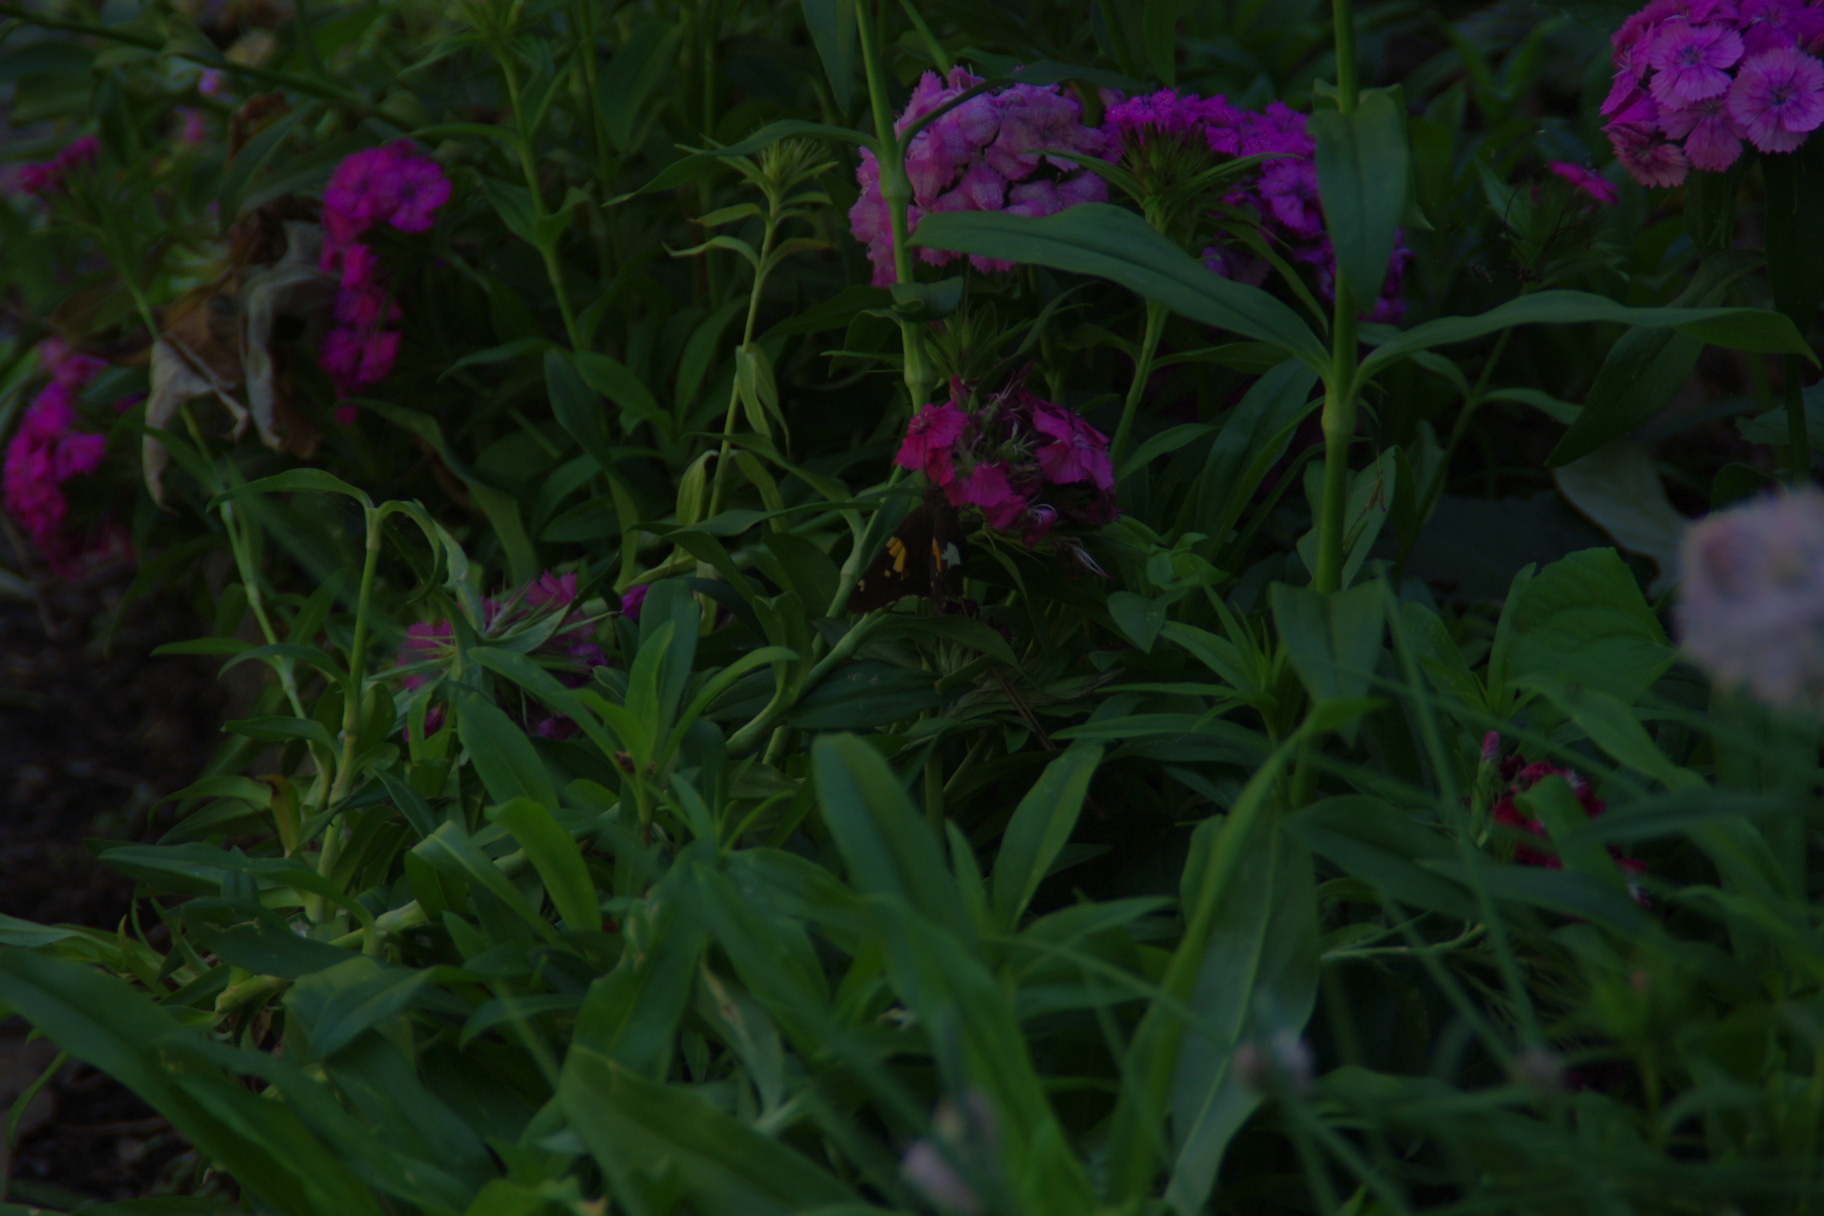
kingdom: Animalia
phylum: Arthropoda
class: Insecta
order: Lepidoptera
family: Hesperiidae
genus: Epargyreus
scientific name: Epargyreus clarus
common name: Silver-spotted skipper
